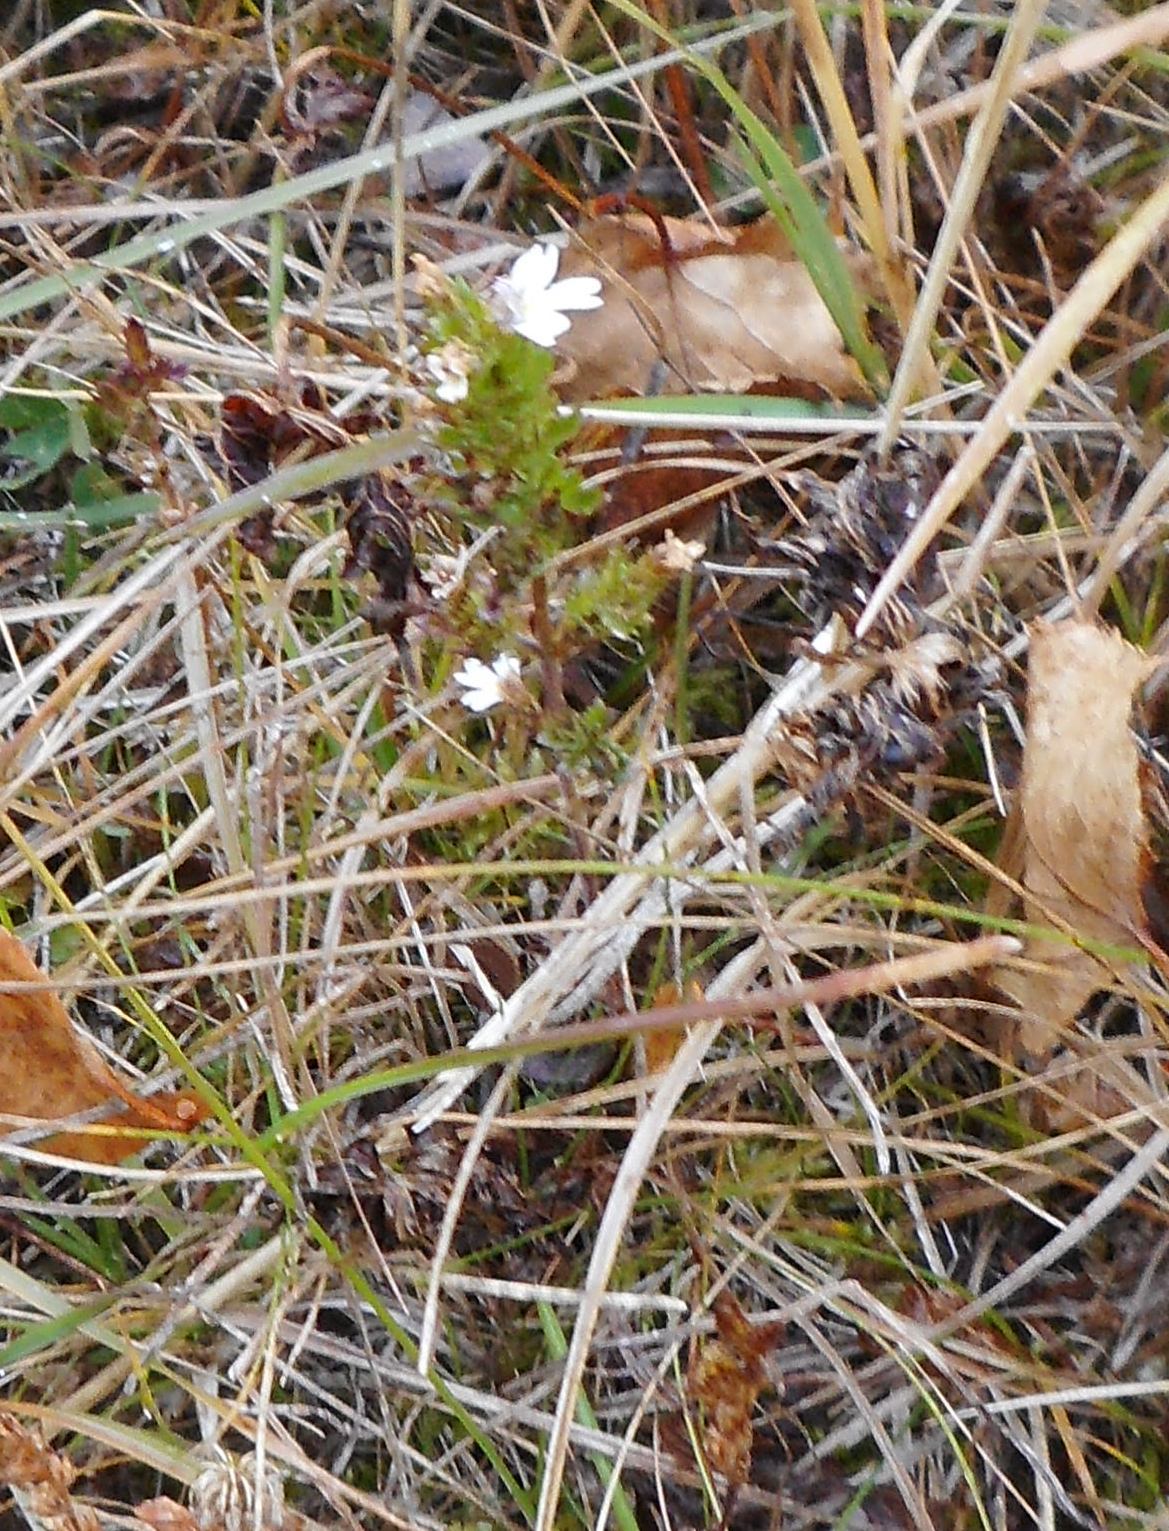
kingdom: Plantae
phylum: Tracheophyta
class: Magnoliopsida
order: Lamiales
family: Orobanchaceae
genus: Euphrasia
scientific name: Euphrasia maximowiczii
